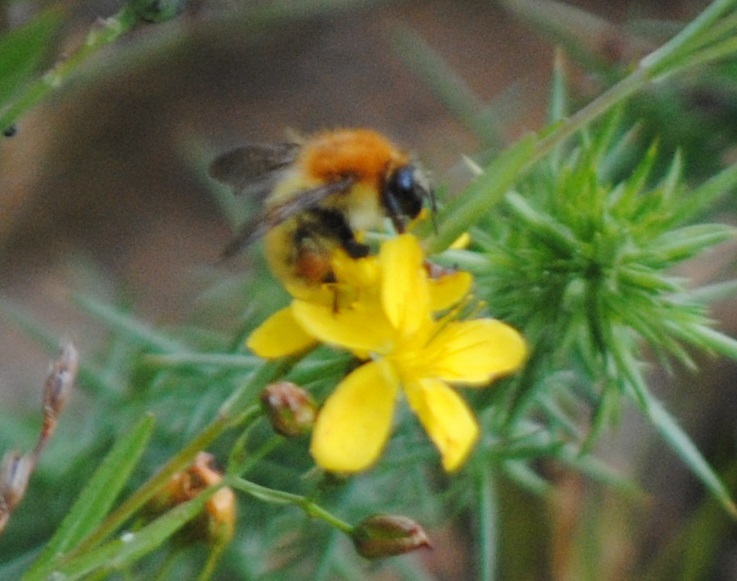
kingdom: Animalia
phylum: Arthropoda
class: Insecta
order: Hymenoptera
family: Apidae
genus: Bombus
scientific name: Bombus pascuorum
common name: Common carder bee
